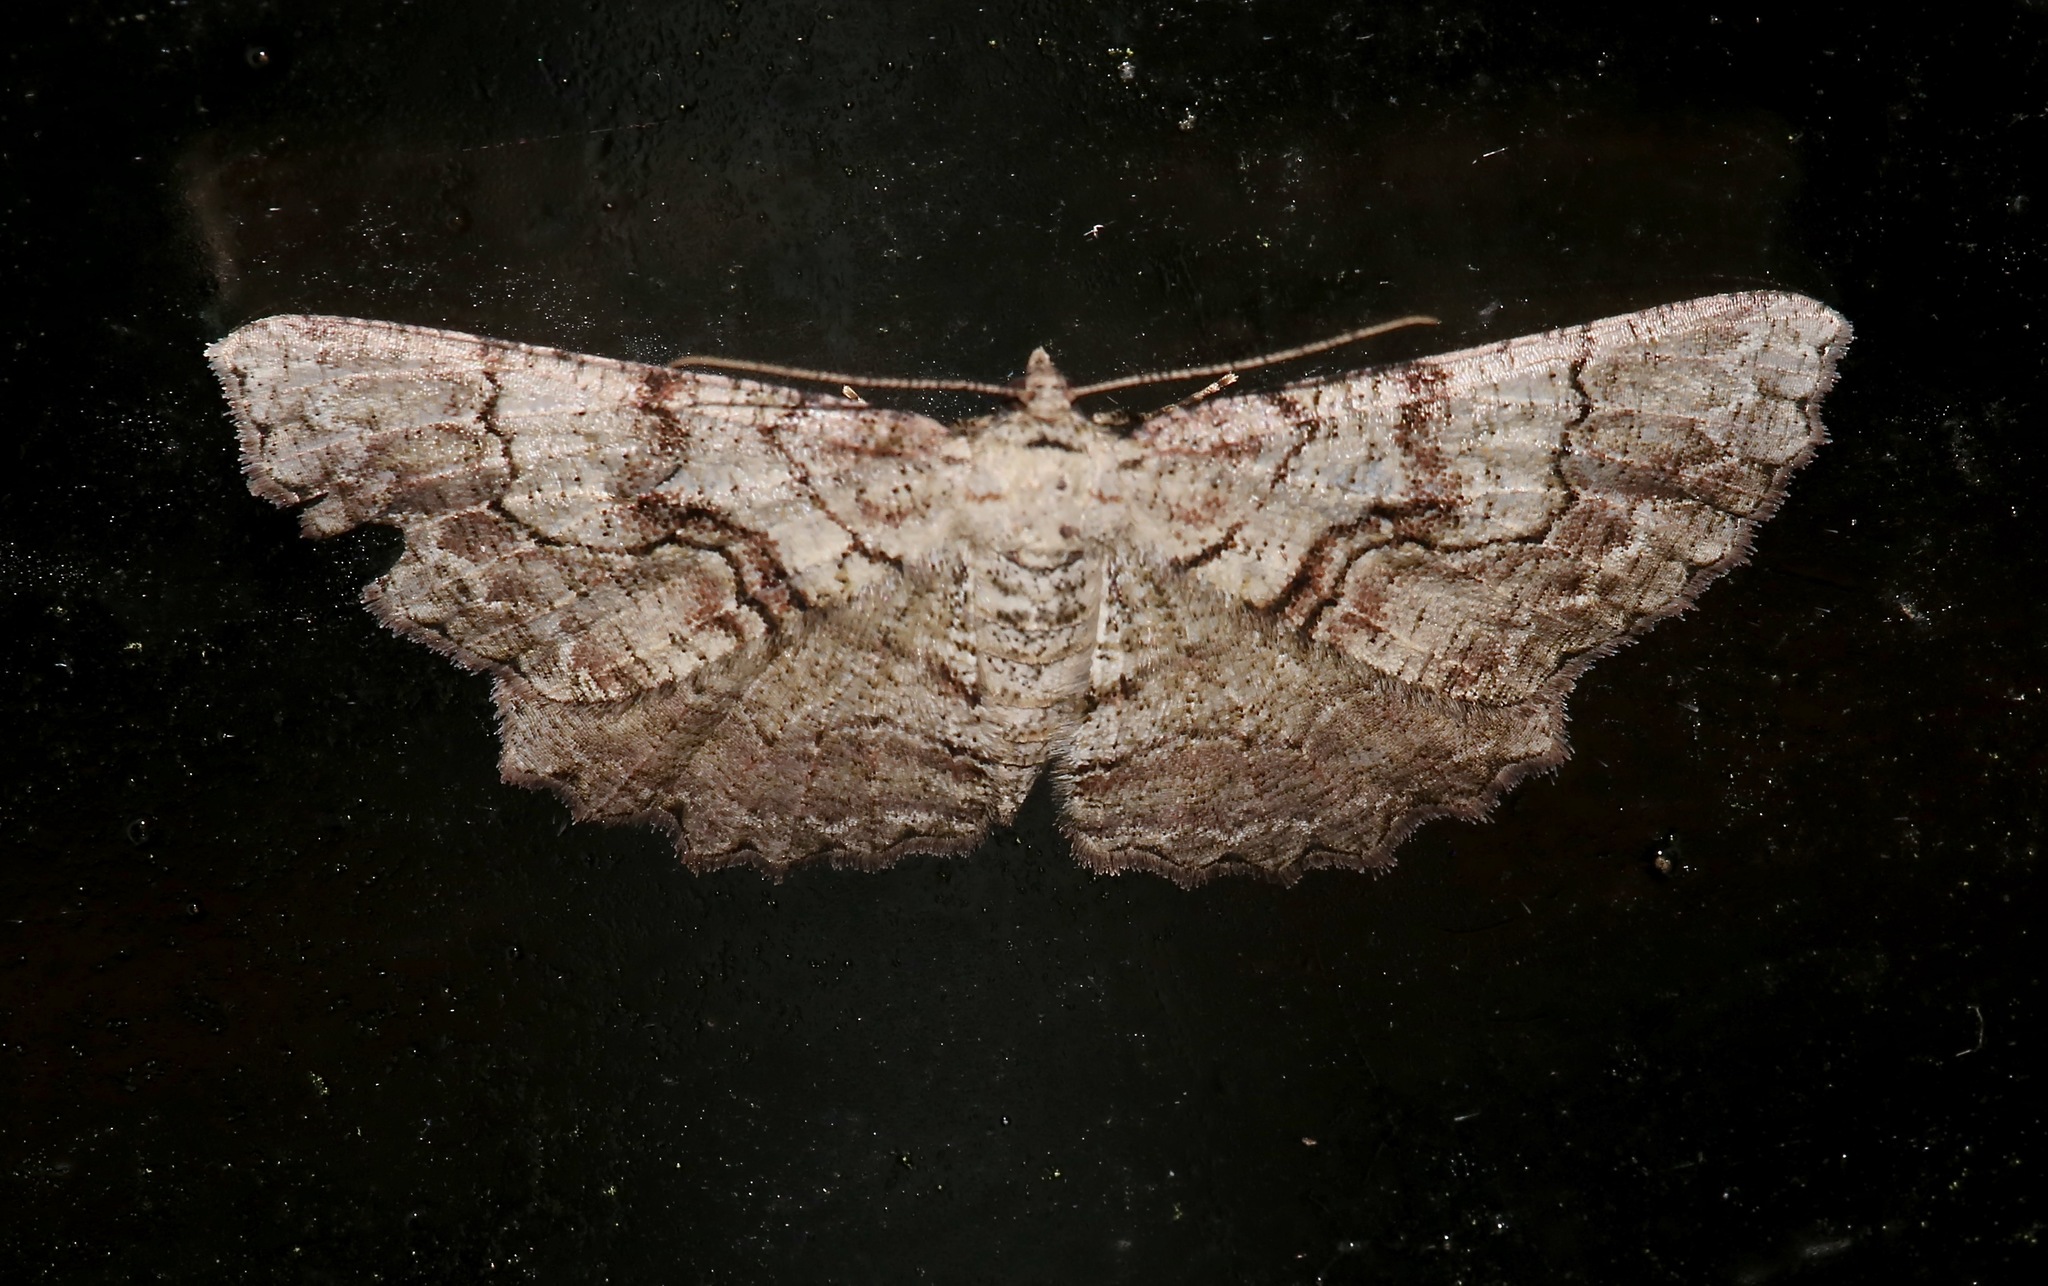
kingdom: Animalia
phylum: Arthropoda
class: Insecta
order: Lepidoptera
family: Geometridae
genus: Cymatophora
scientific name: Cymatophora approximaria
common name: Giant gray moth
